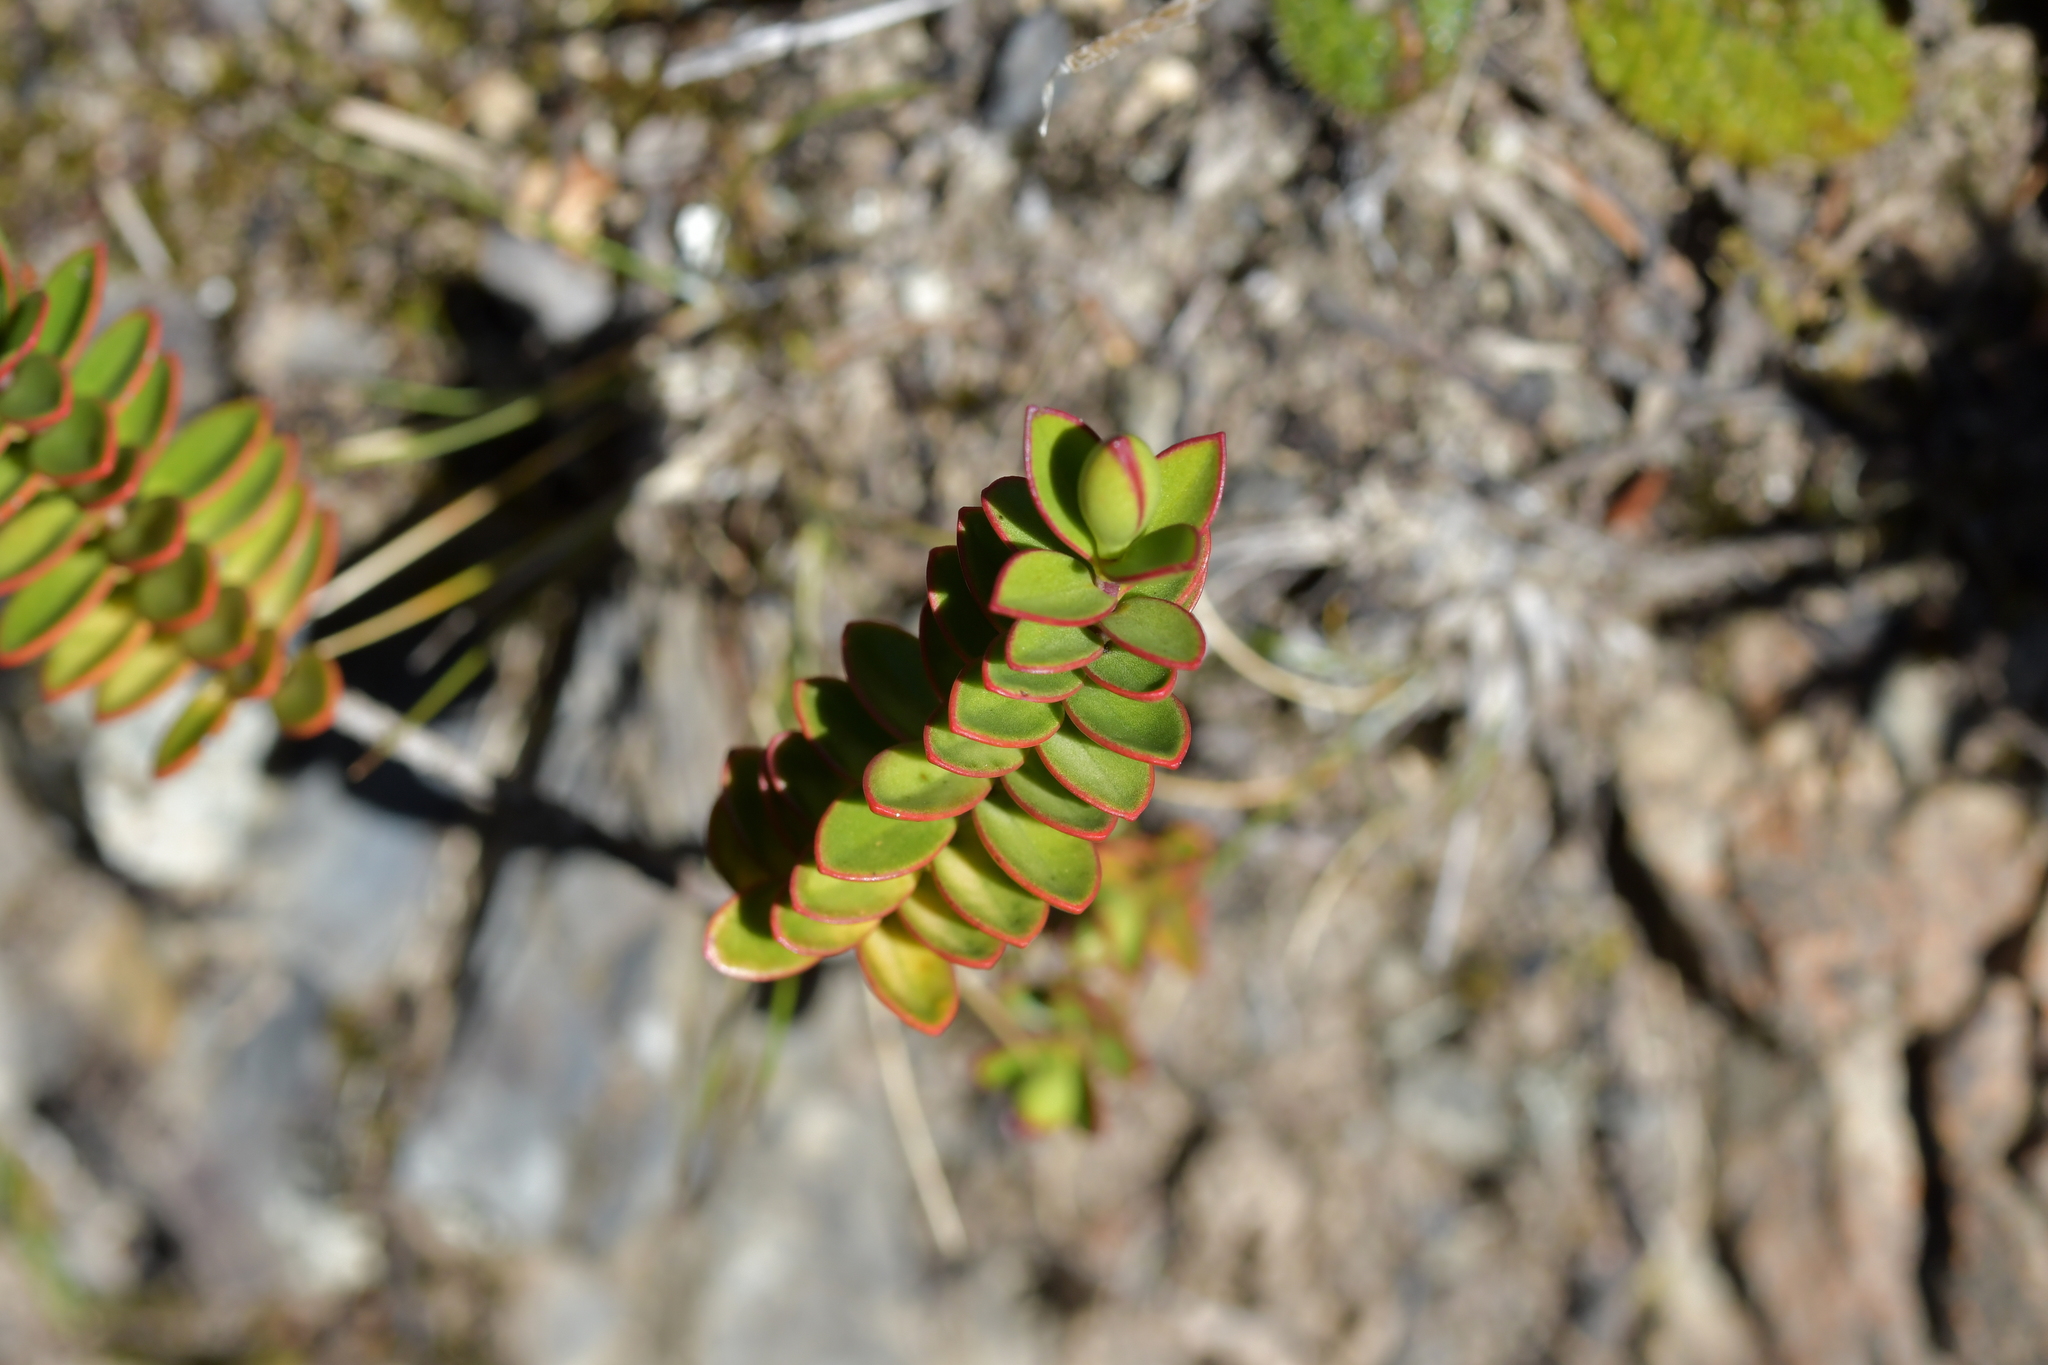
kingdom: Plantae
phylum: Tracheophyta
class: Magnoliopsida
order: Lamiales
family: Plantaginaceae
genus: Veronica
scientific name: Veronica decumbens
